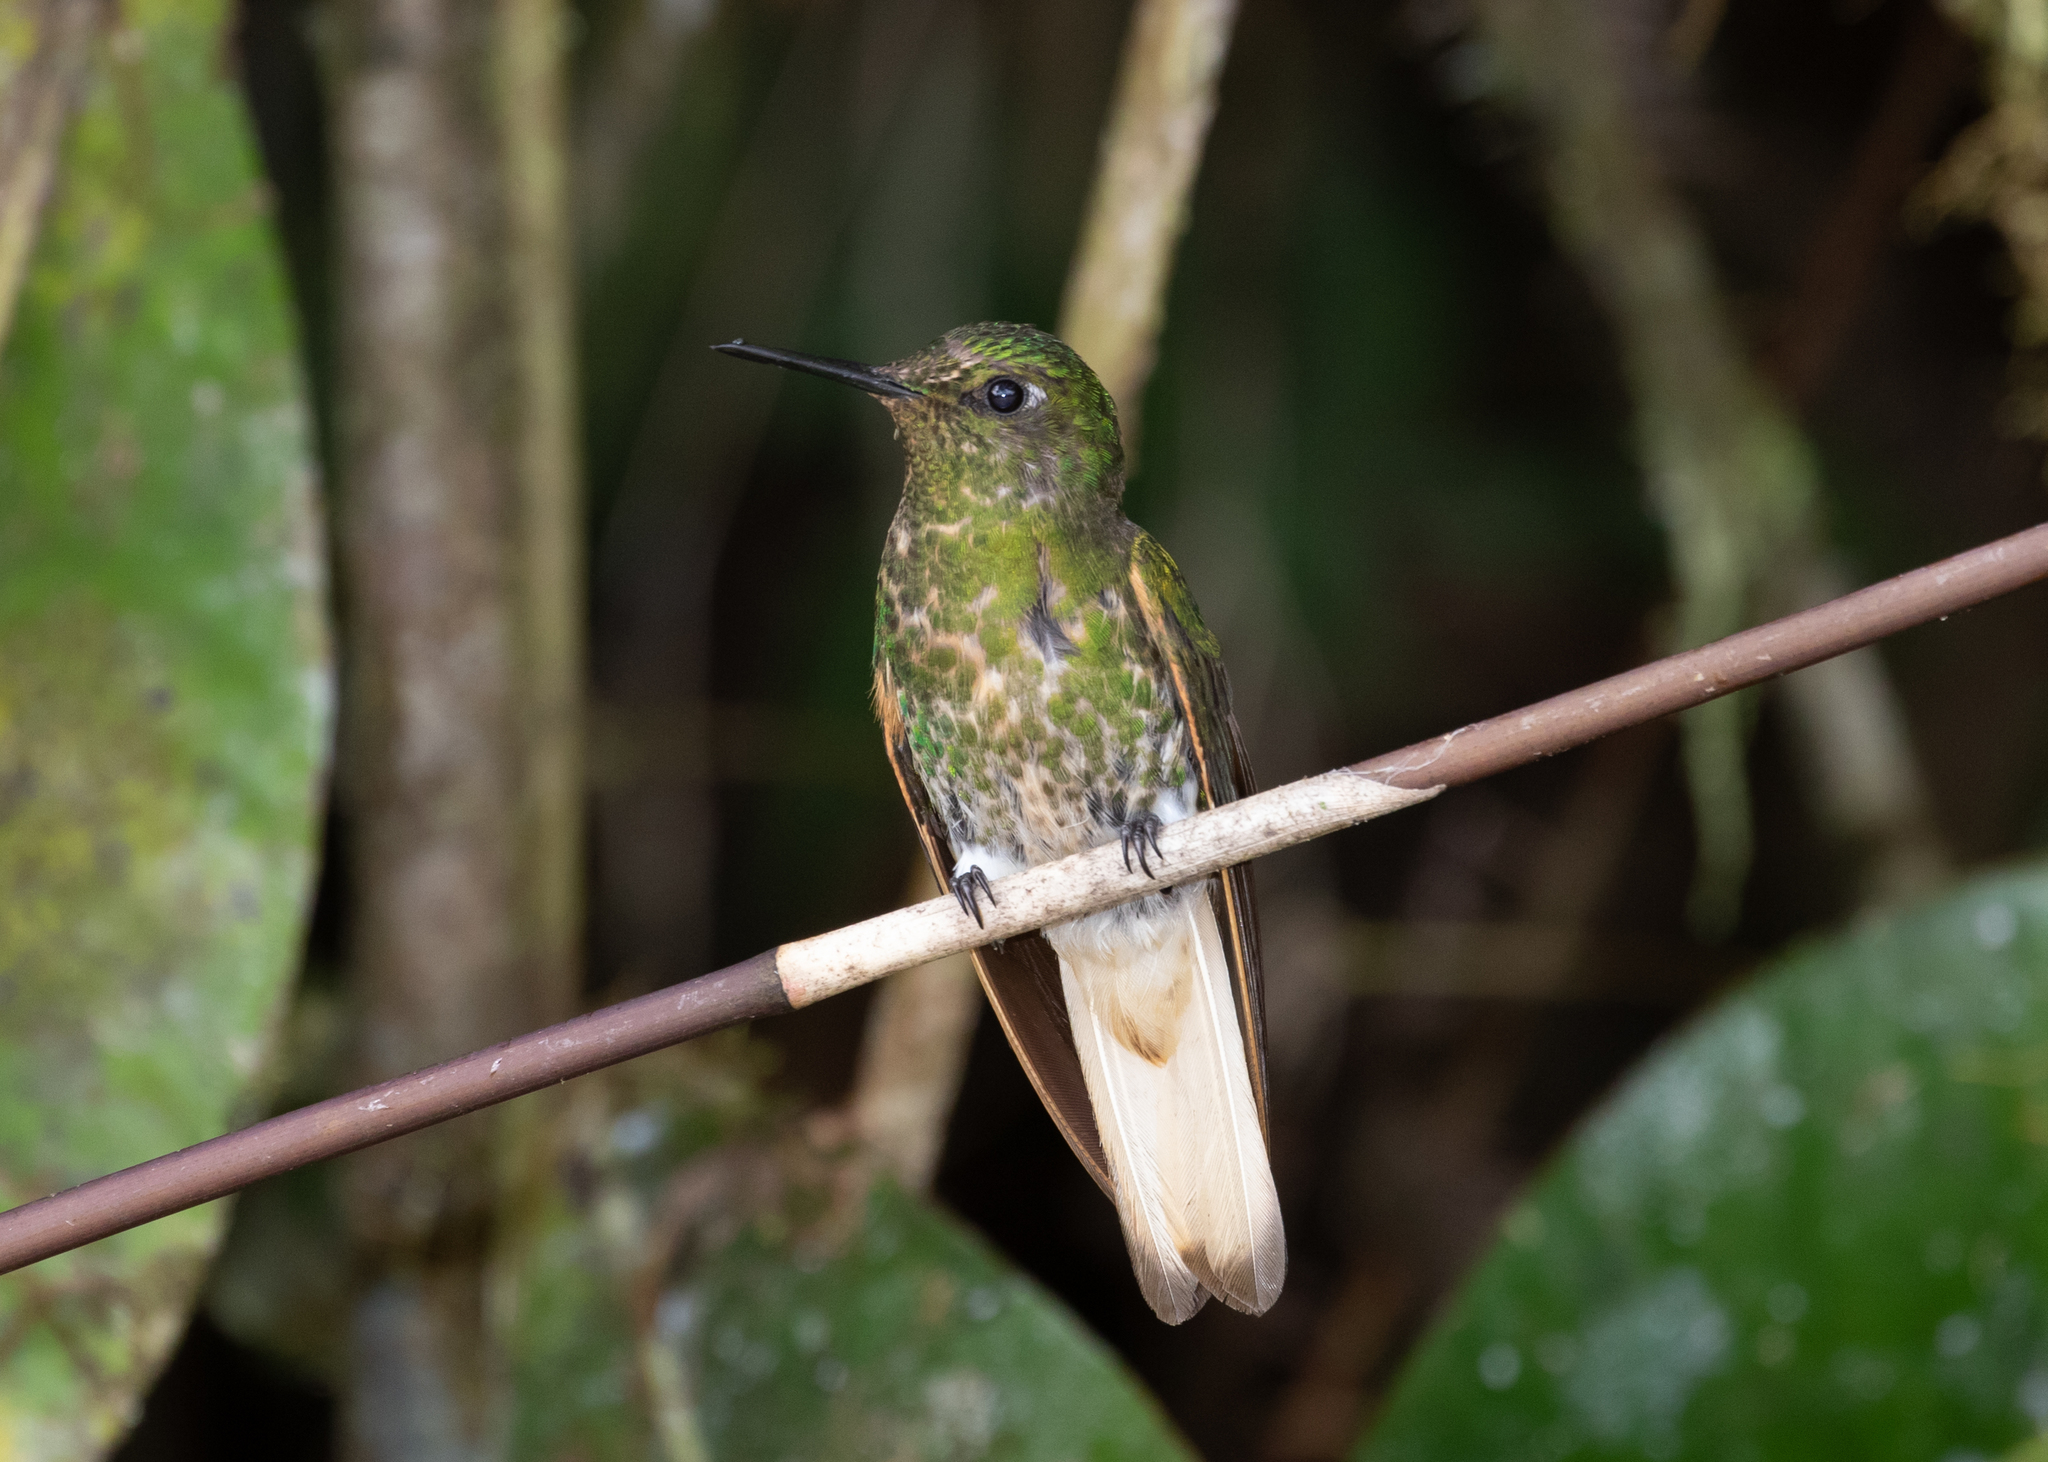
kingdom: Animalia
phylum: Chordata
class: Aves
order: Apodiformes
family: Trochilidae
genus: Boissonneaua
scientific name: Boissonneaua flavescens
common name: Buff-tailed coronet
